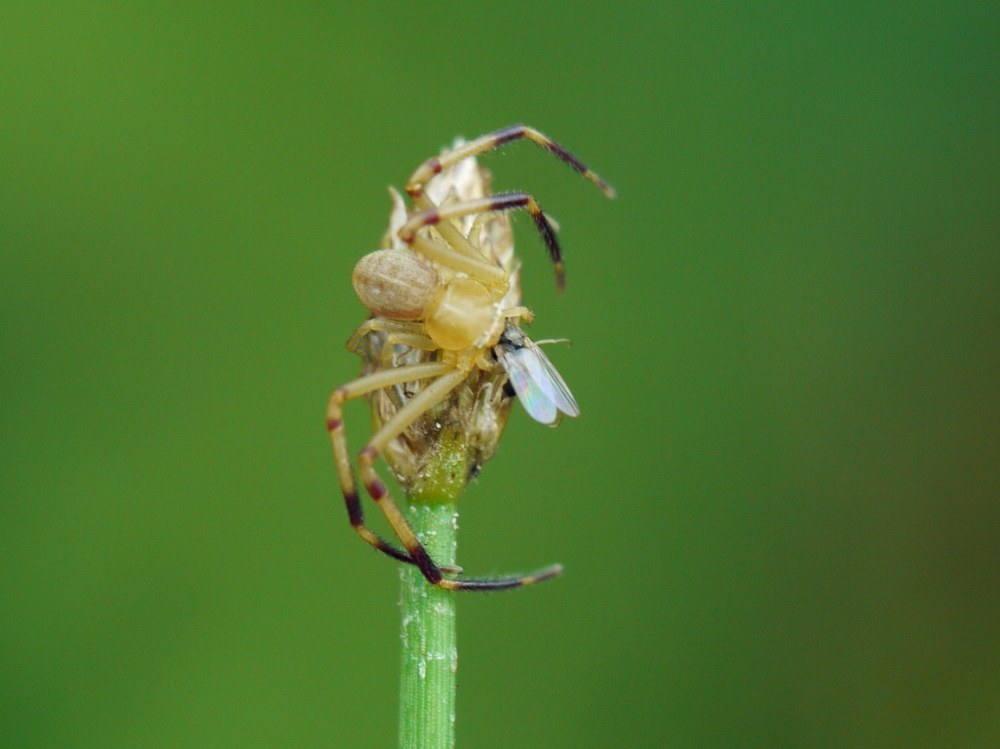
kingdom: Animalia
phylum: Arthropoda
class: Arachnida
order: Araneae
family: Thomisidae
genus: Runcinia
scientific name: Runcinia grammica
